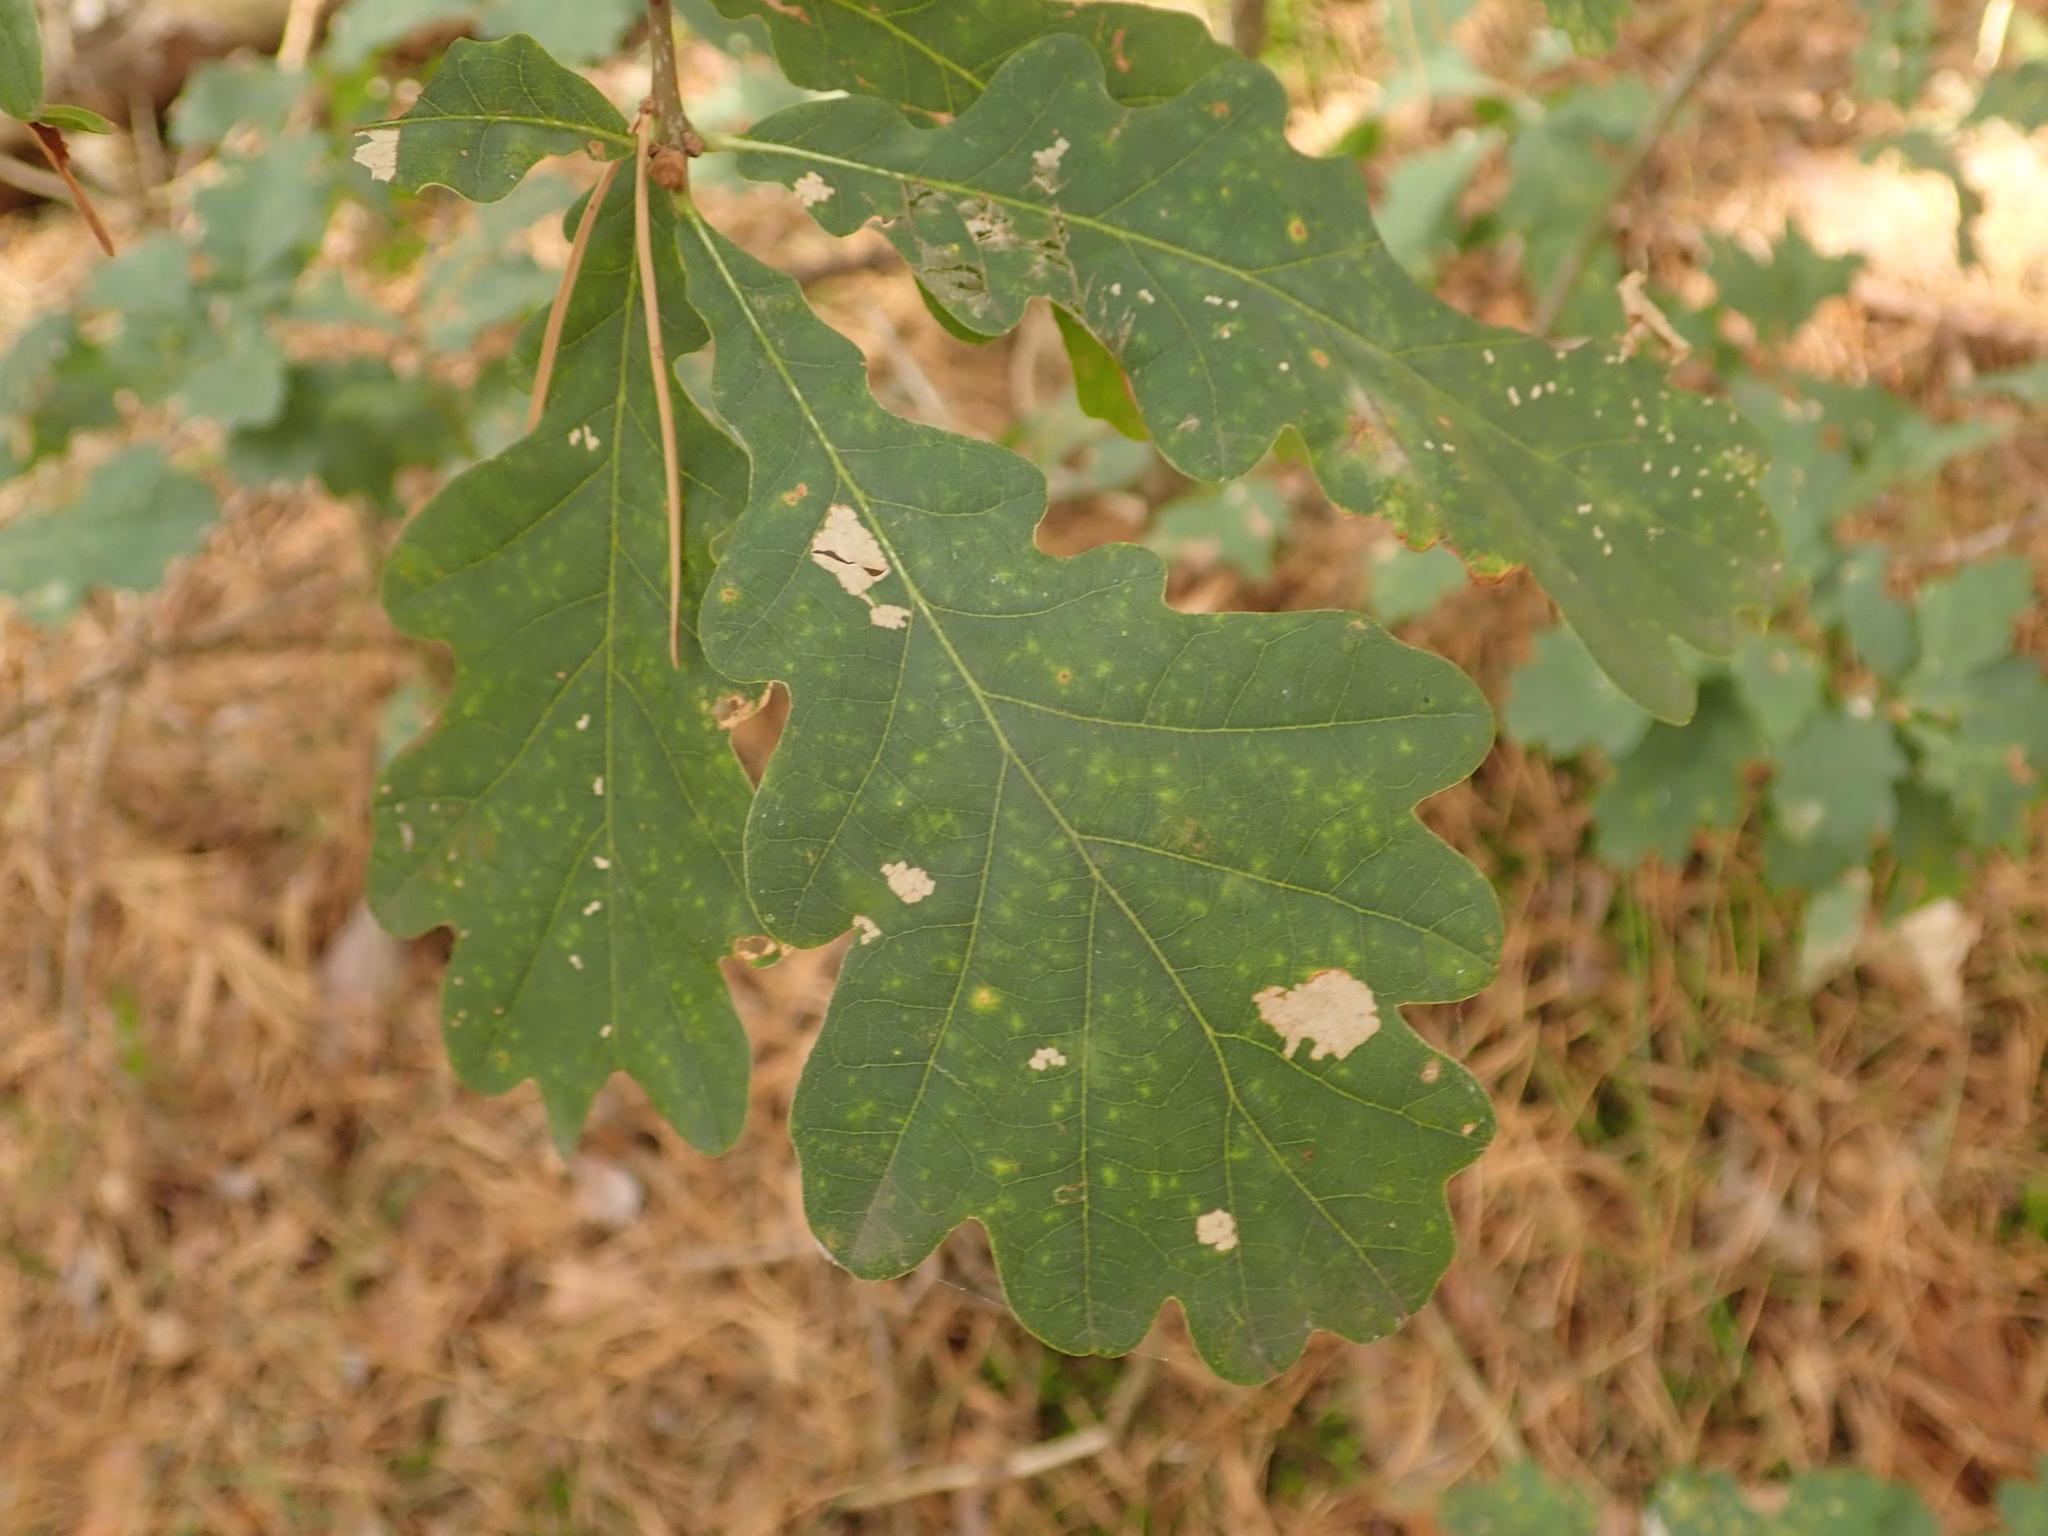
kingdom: Plantae
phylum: Tracheophyta
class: Magnoliopsida
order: Fagales
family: Fagaceae
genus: Quercus
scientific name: Quercus robur
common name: Pedunculate oak
